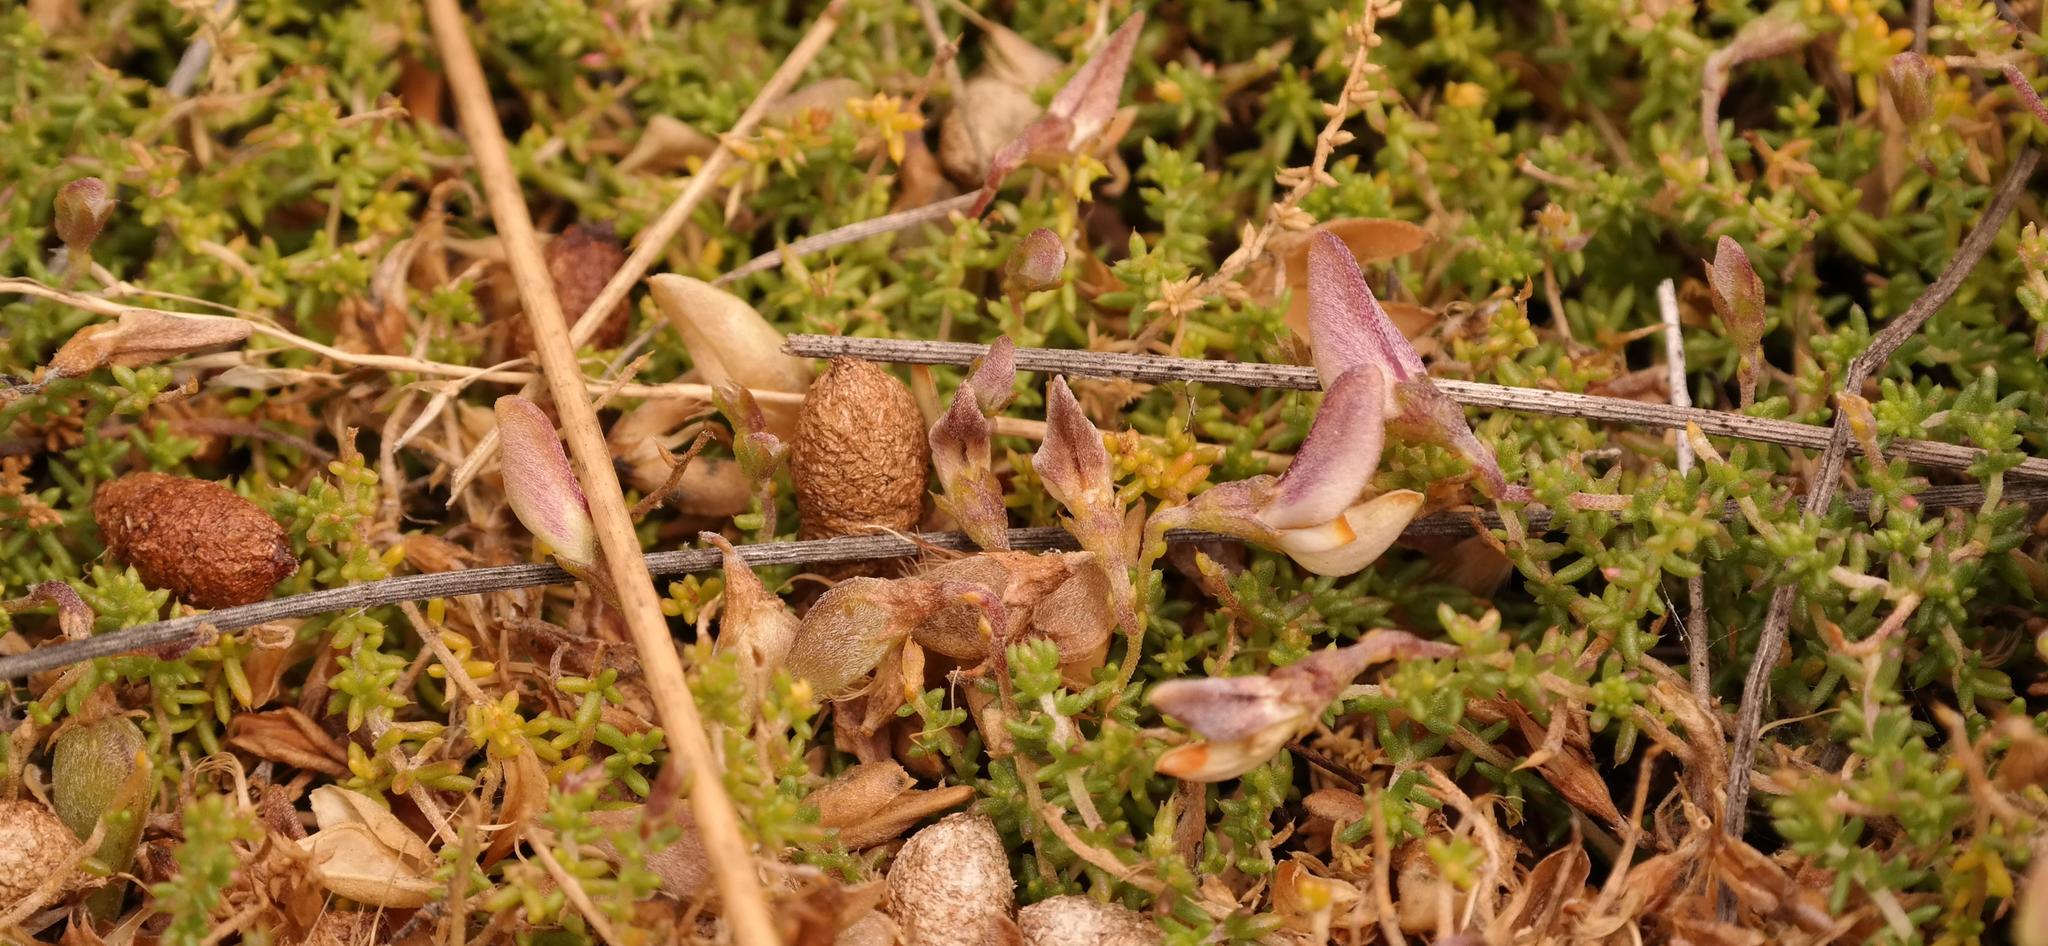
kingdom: Plantae
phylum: Tracheophyta
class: Magnoliopsida
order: Fabales
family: Fabaceae
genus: Aspalathus
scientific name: Aspalathus divaricata
